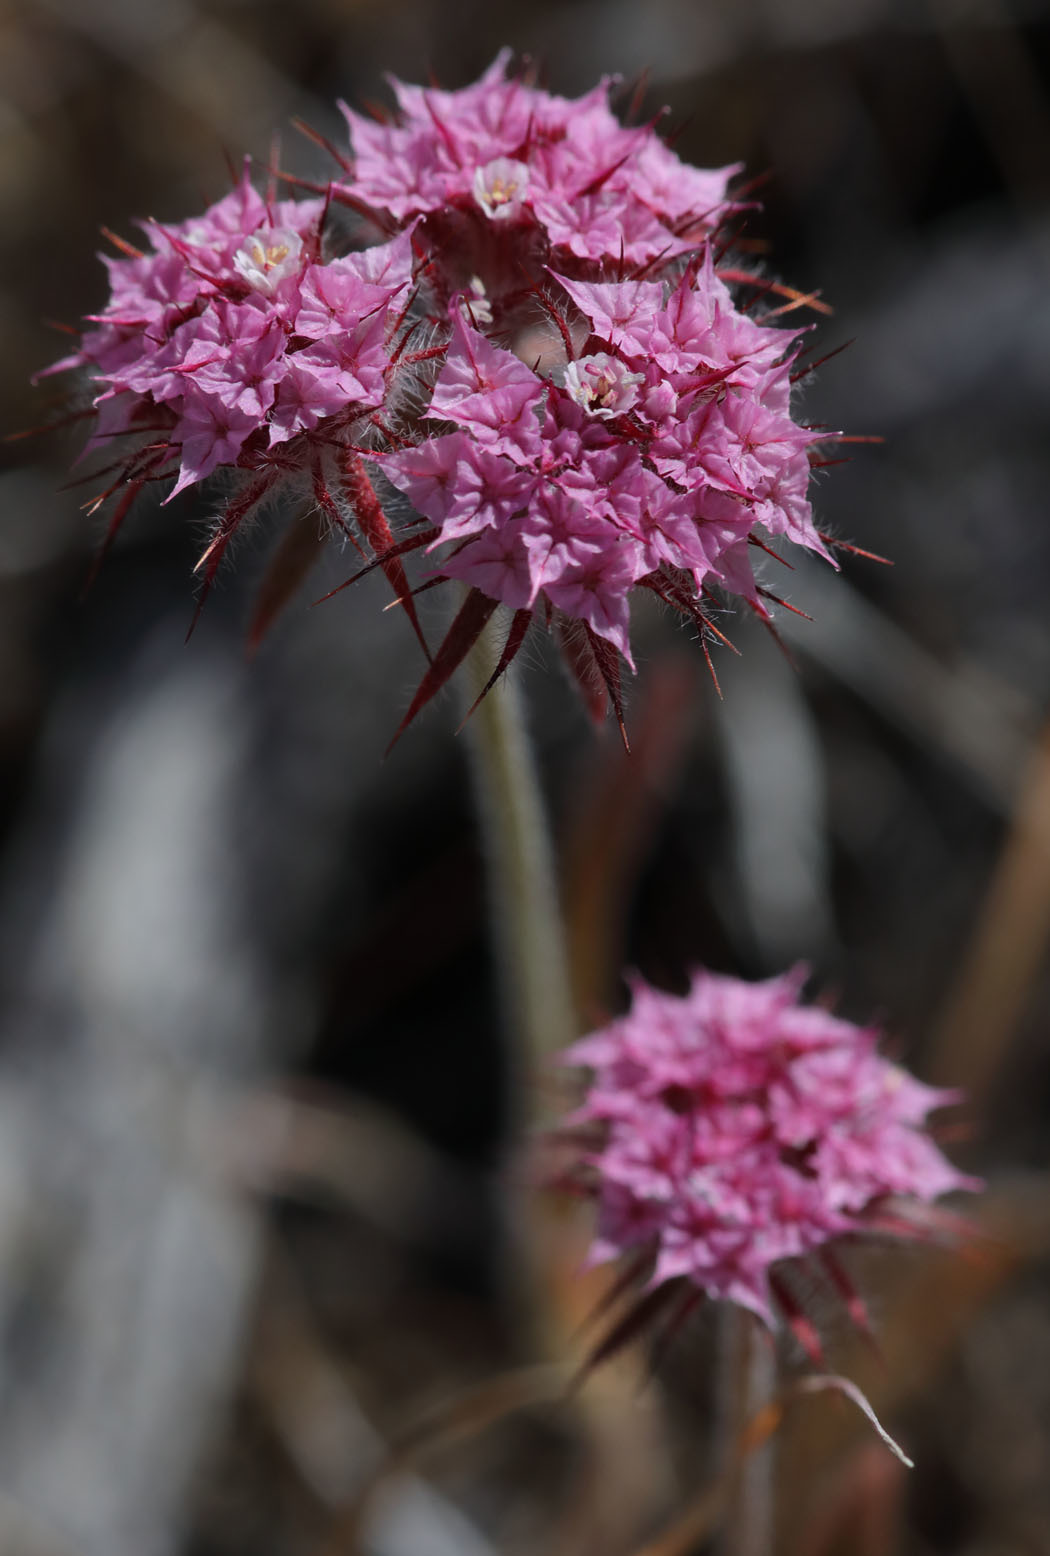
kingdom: Plantae
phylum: Tracheophyta
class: Magnoliopsida
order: Caryophyllales
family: Polygonaceae
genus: Chorizanthe
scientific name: Chorizanthe douglasii
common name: Douglas's spineflower
